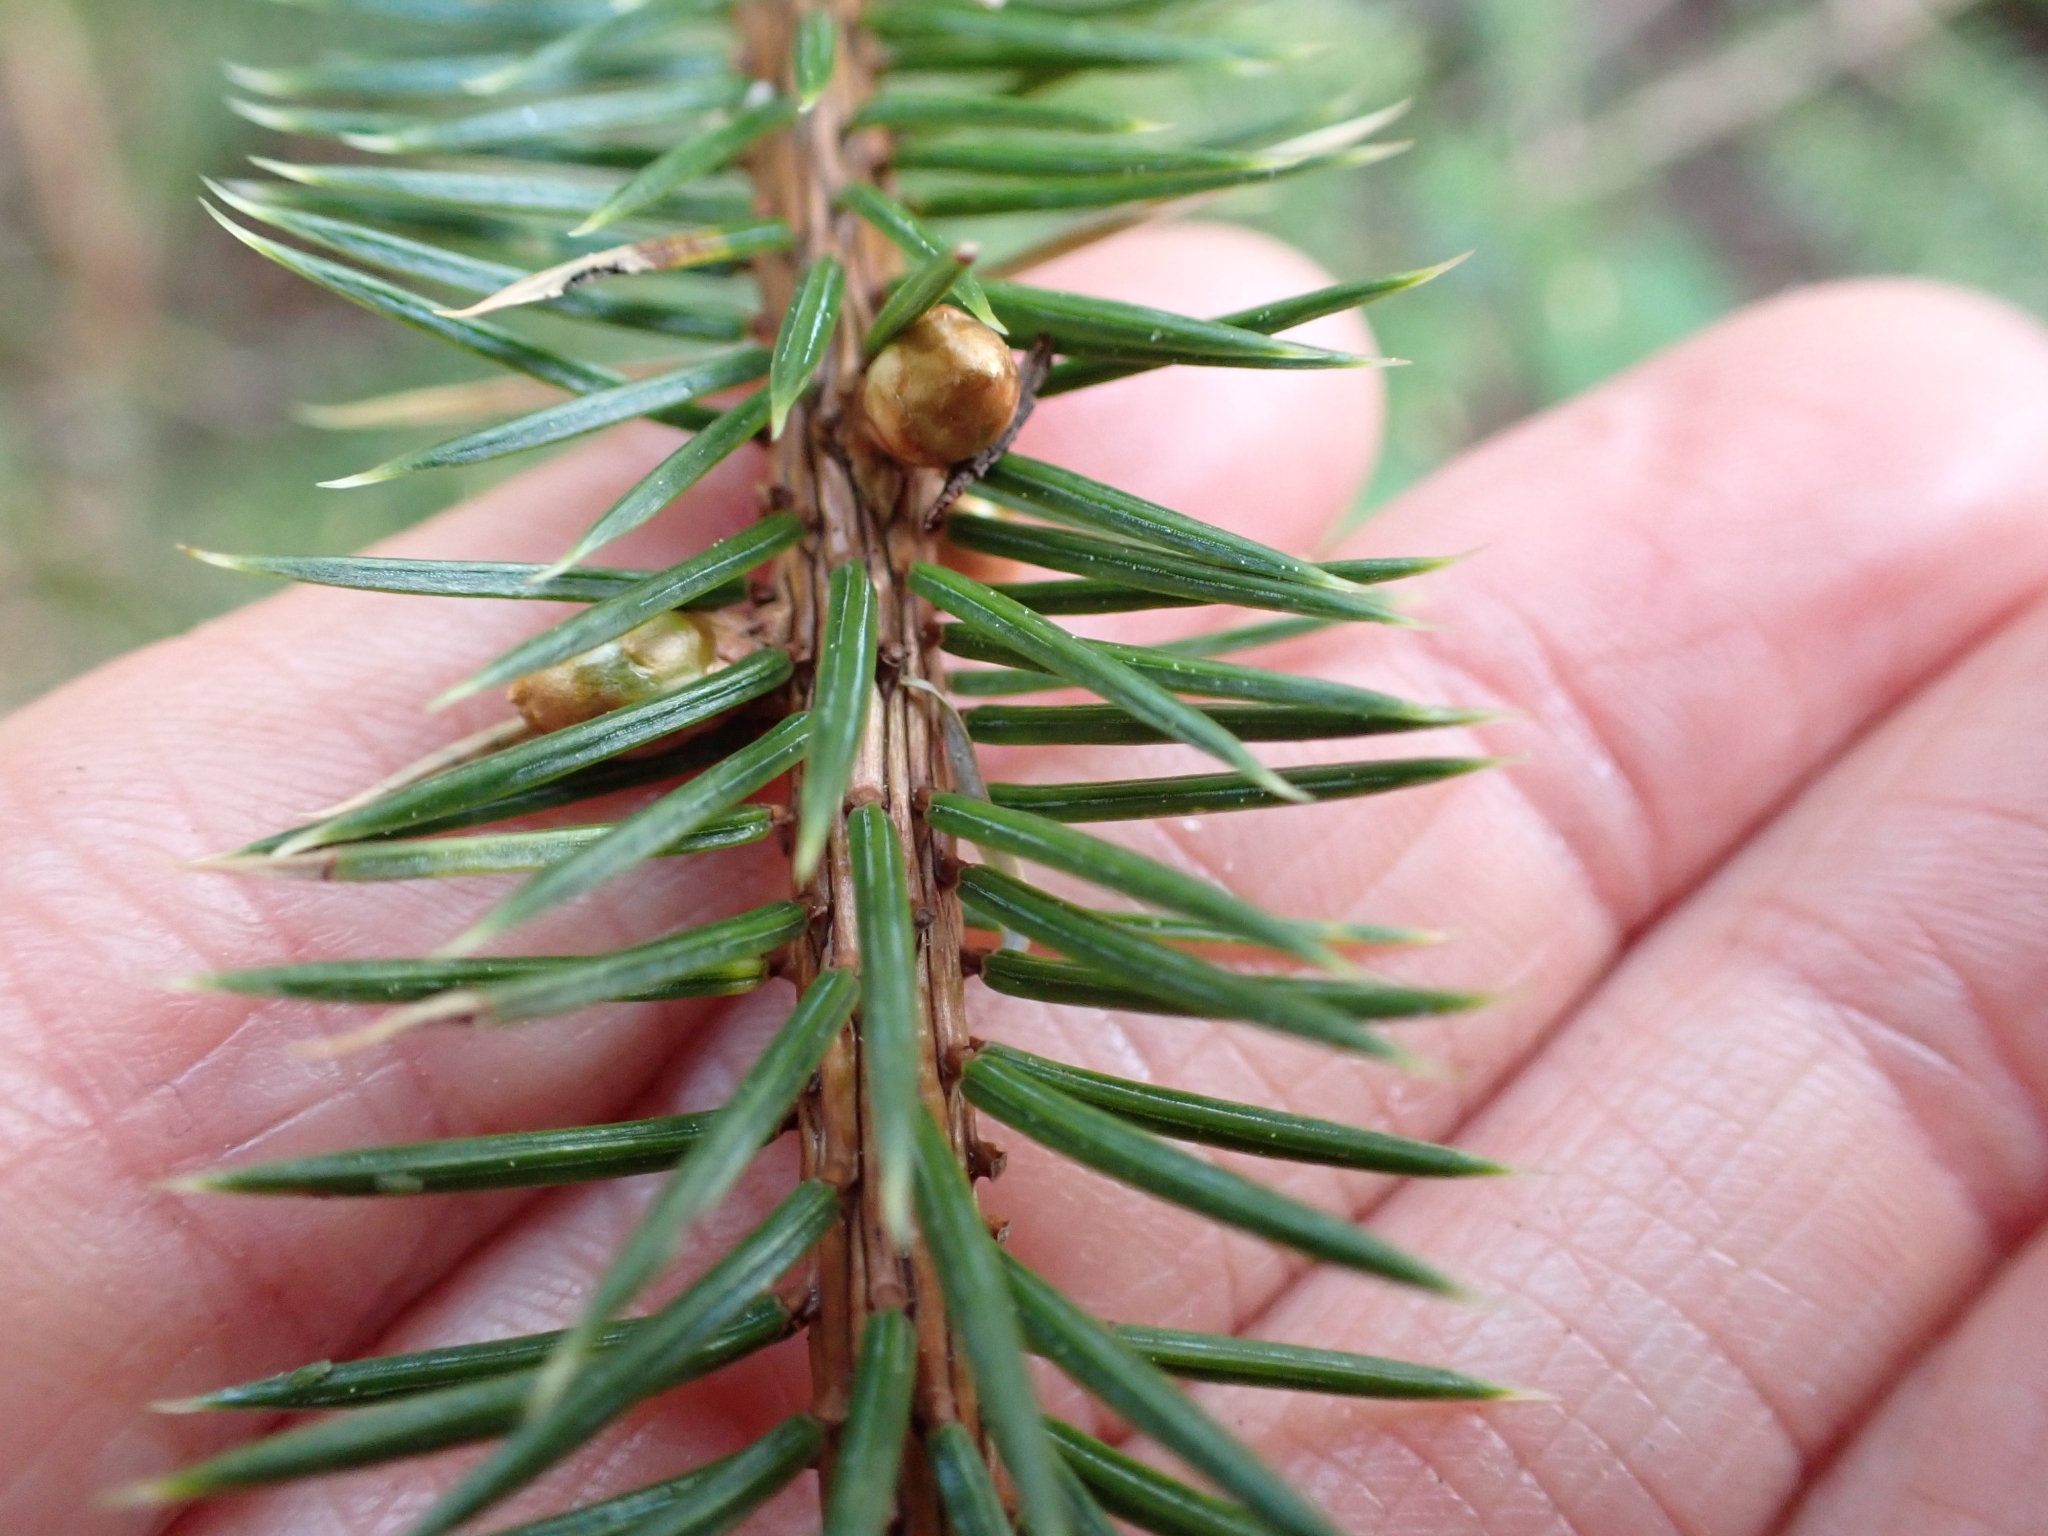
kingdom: Plantae
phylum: Tracheophyta
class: Pinopsida
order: Pinales
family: Pinaceae
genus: Picea
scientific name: Picea sitchensis
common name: Sitka spruce
